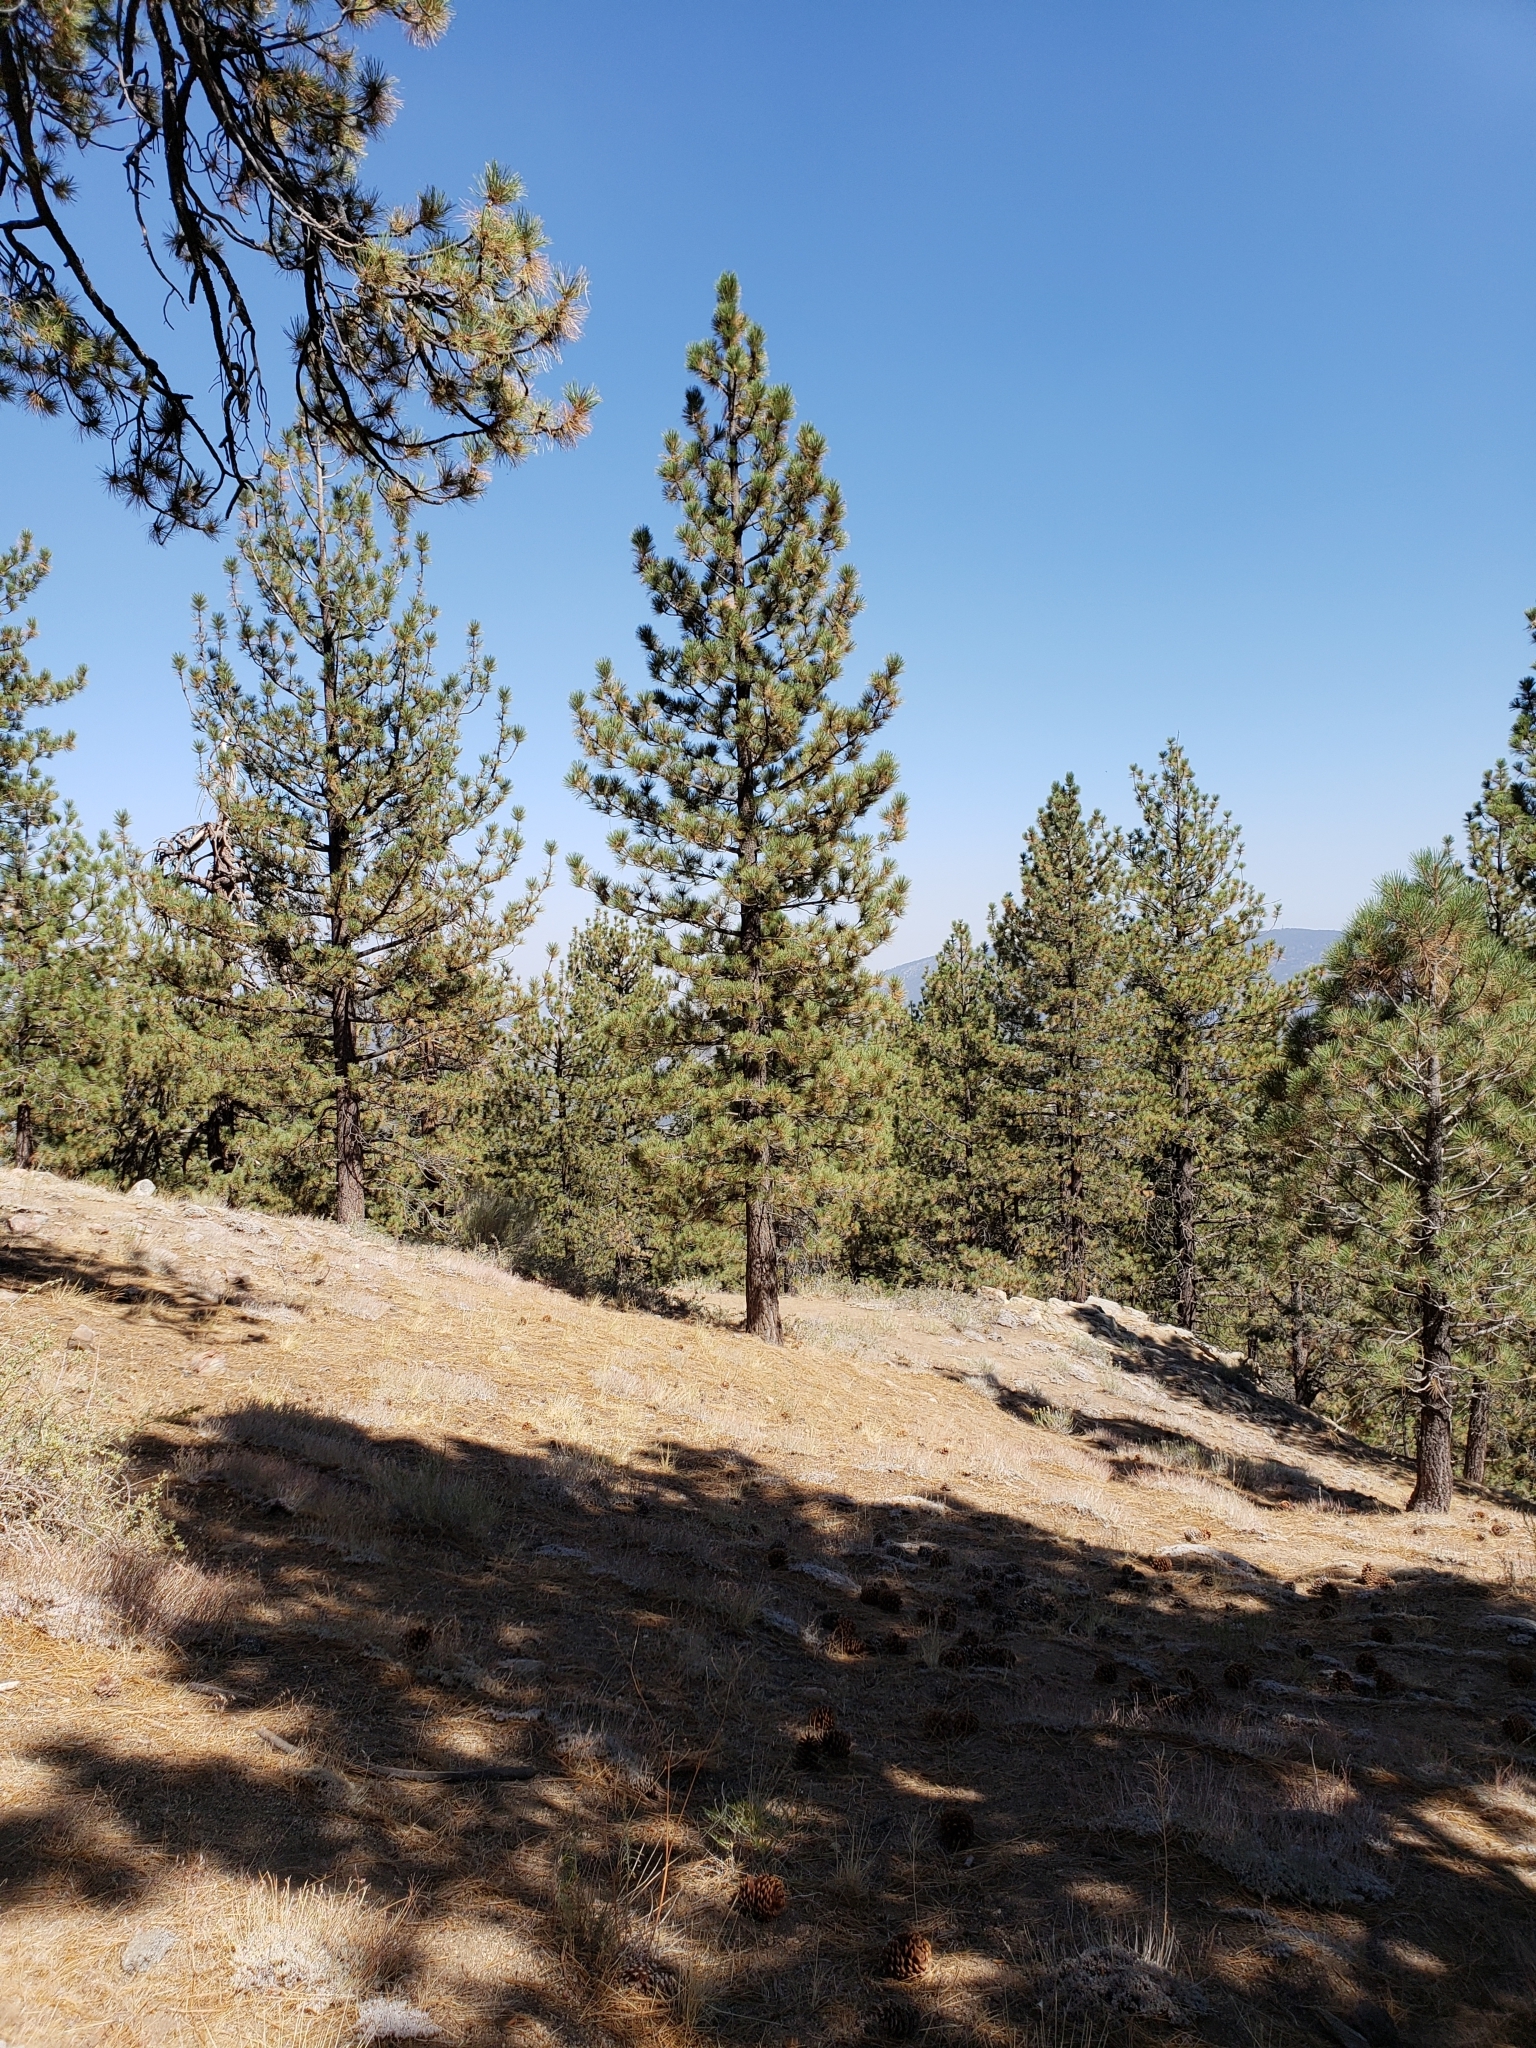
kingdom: Plantae
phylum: Tracheophyta
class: Pinopsida
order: Pinales
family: Pinaceae
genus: Pinus
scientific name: Pinus jeffreyi
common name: Jeffrey pine
